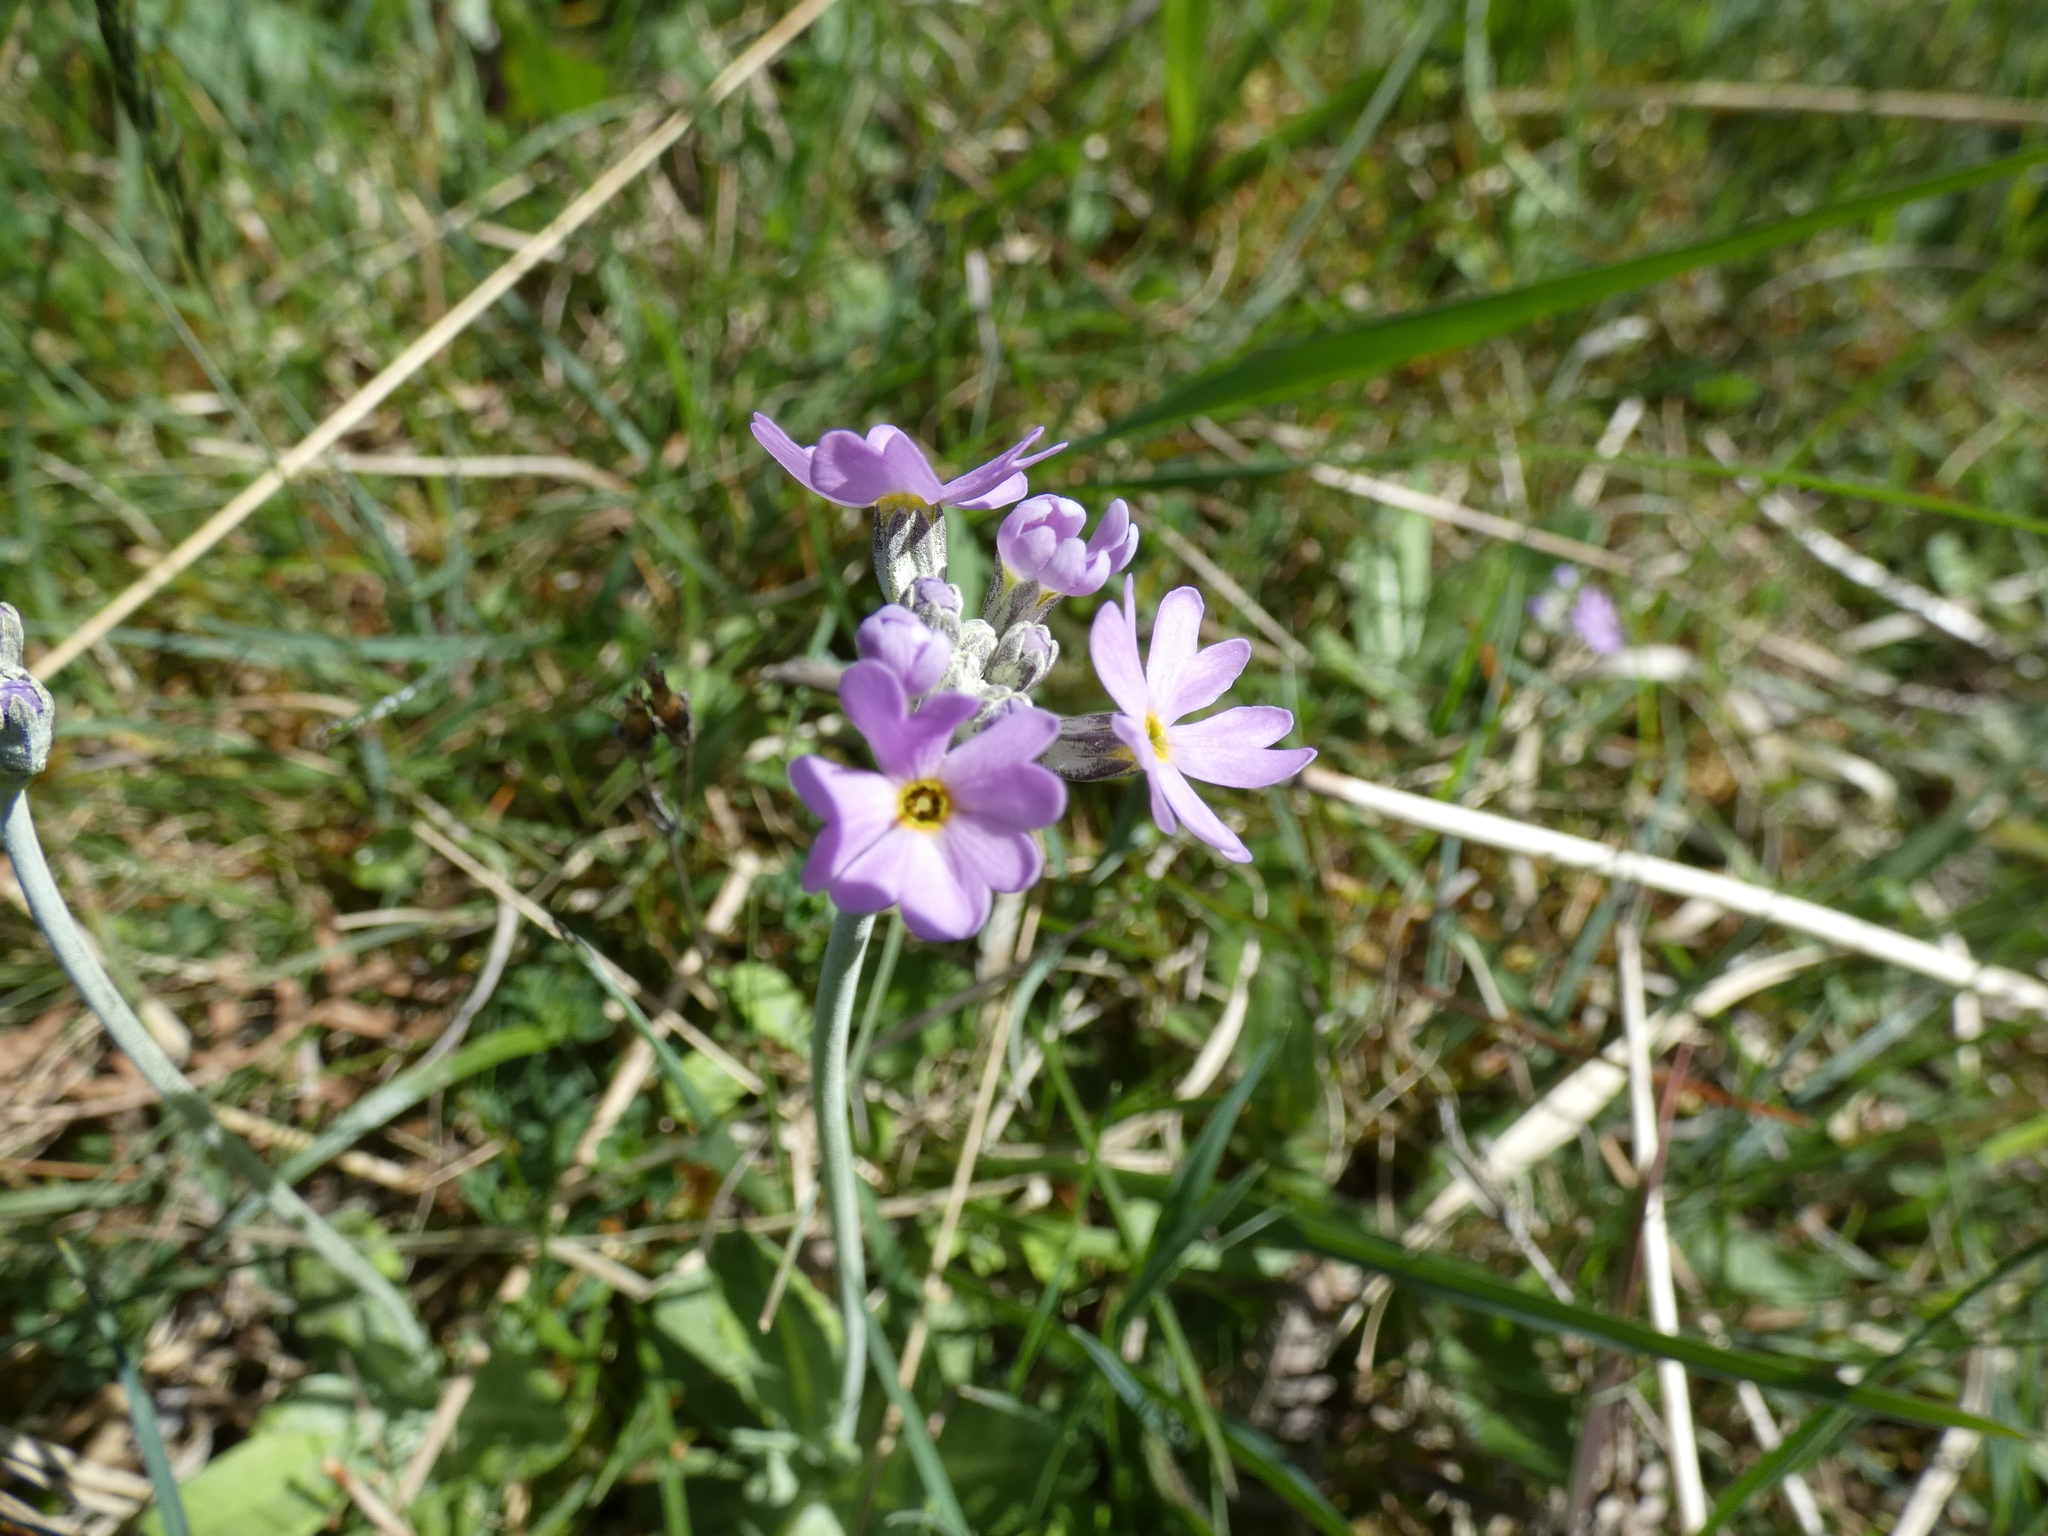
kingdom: Plantae
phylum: Tracheophyta
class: Magnoliopsida
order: Ericales
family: Primulaceae
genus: Primula
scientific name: Primula farinosa
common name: Bird's-eye primrose
